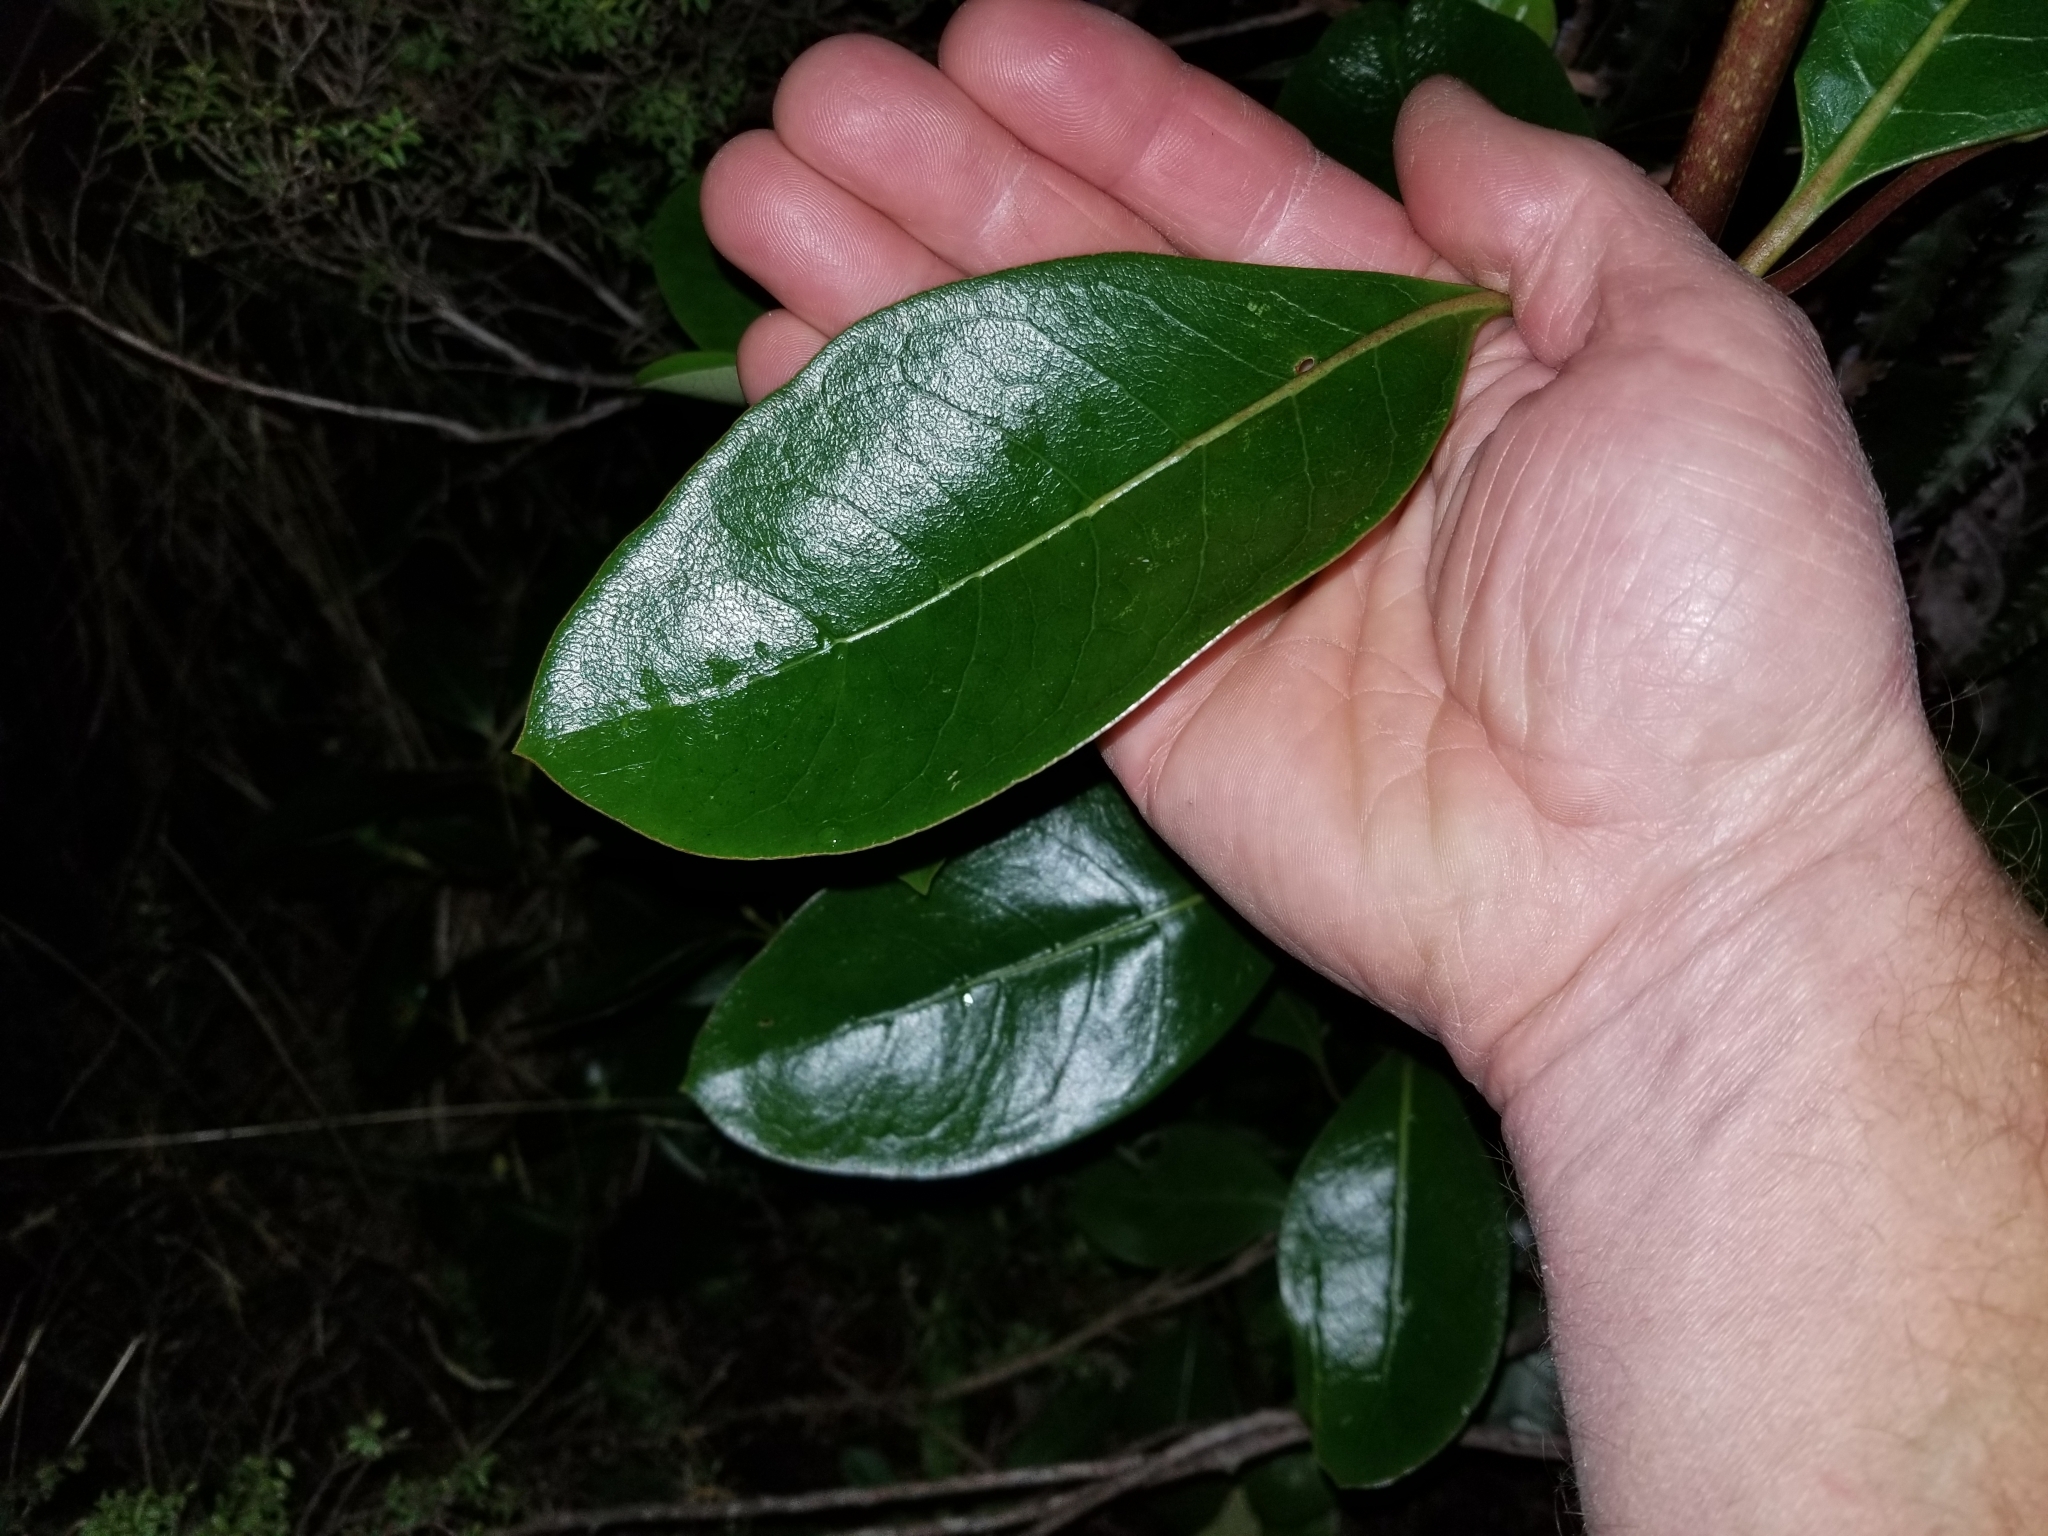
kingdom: Plantae
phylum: Tracheophyta
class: Magnoliopsida
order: Gentianales
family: Rubiaceae
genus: Coprosma
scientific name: Coprosma lucida
